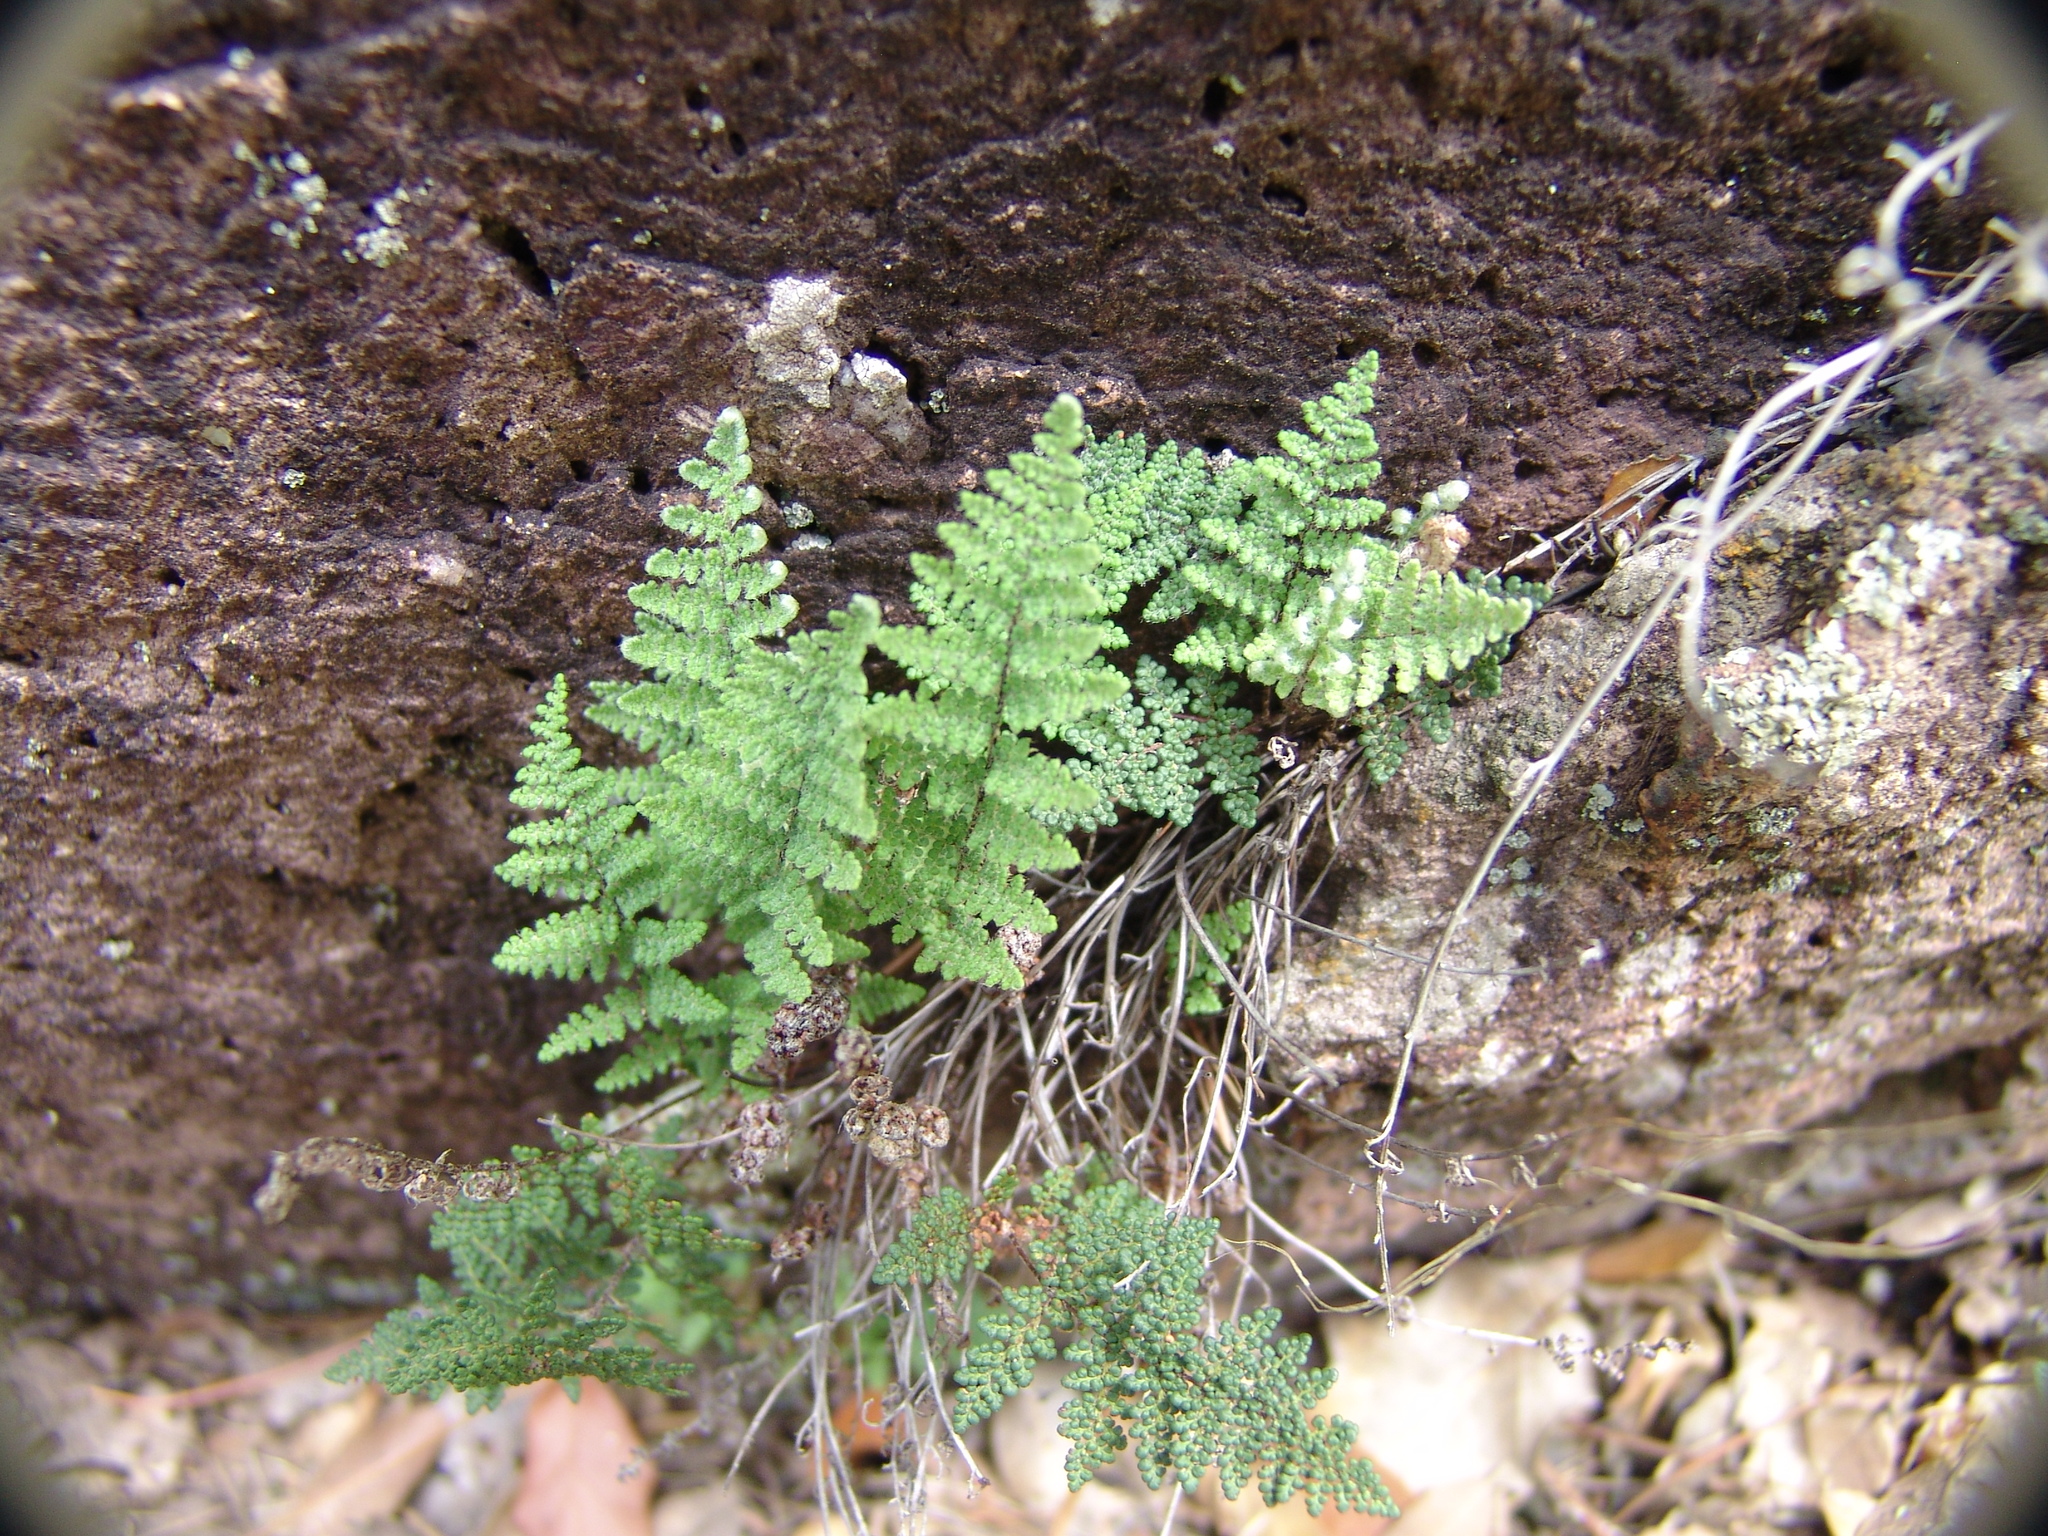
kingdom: Plantae
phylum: Tracheophyta
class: Polypodiopsida
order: Polypodiales
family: Pteridaceae
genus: Myriopteris
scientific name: Myriopteris yavapensis
